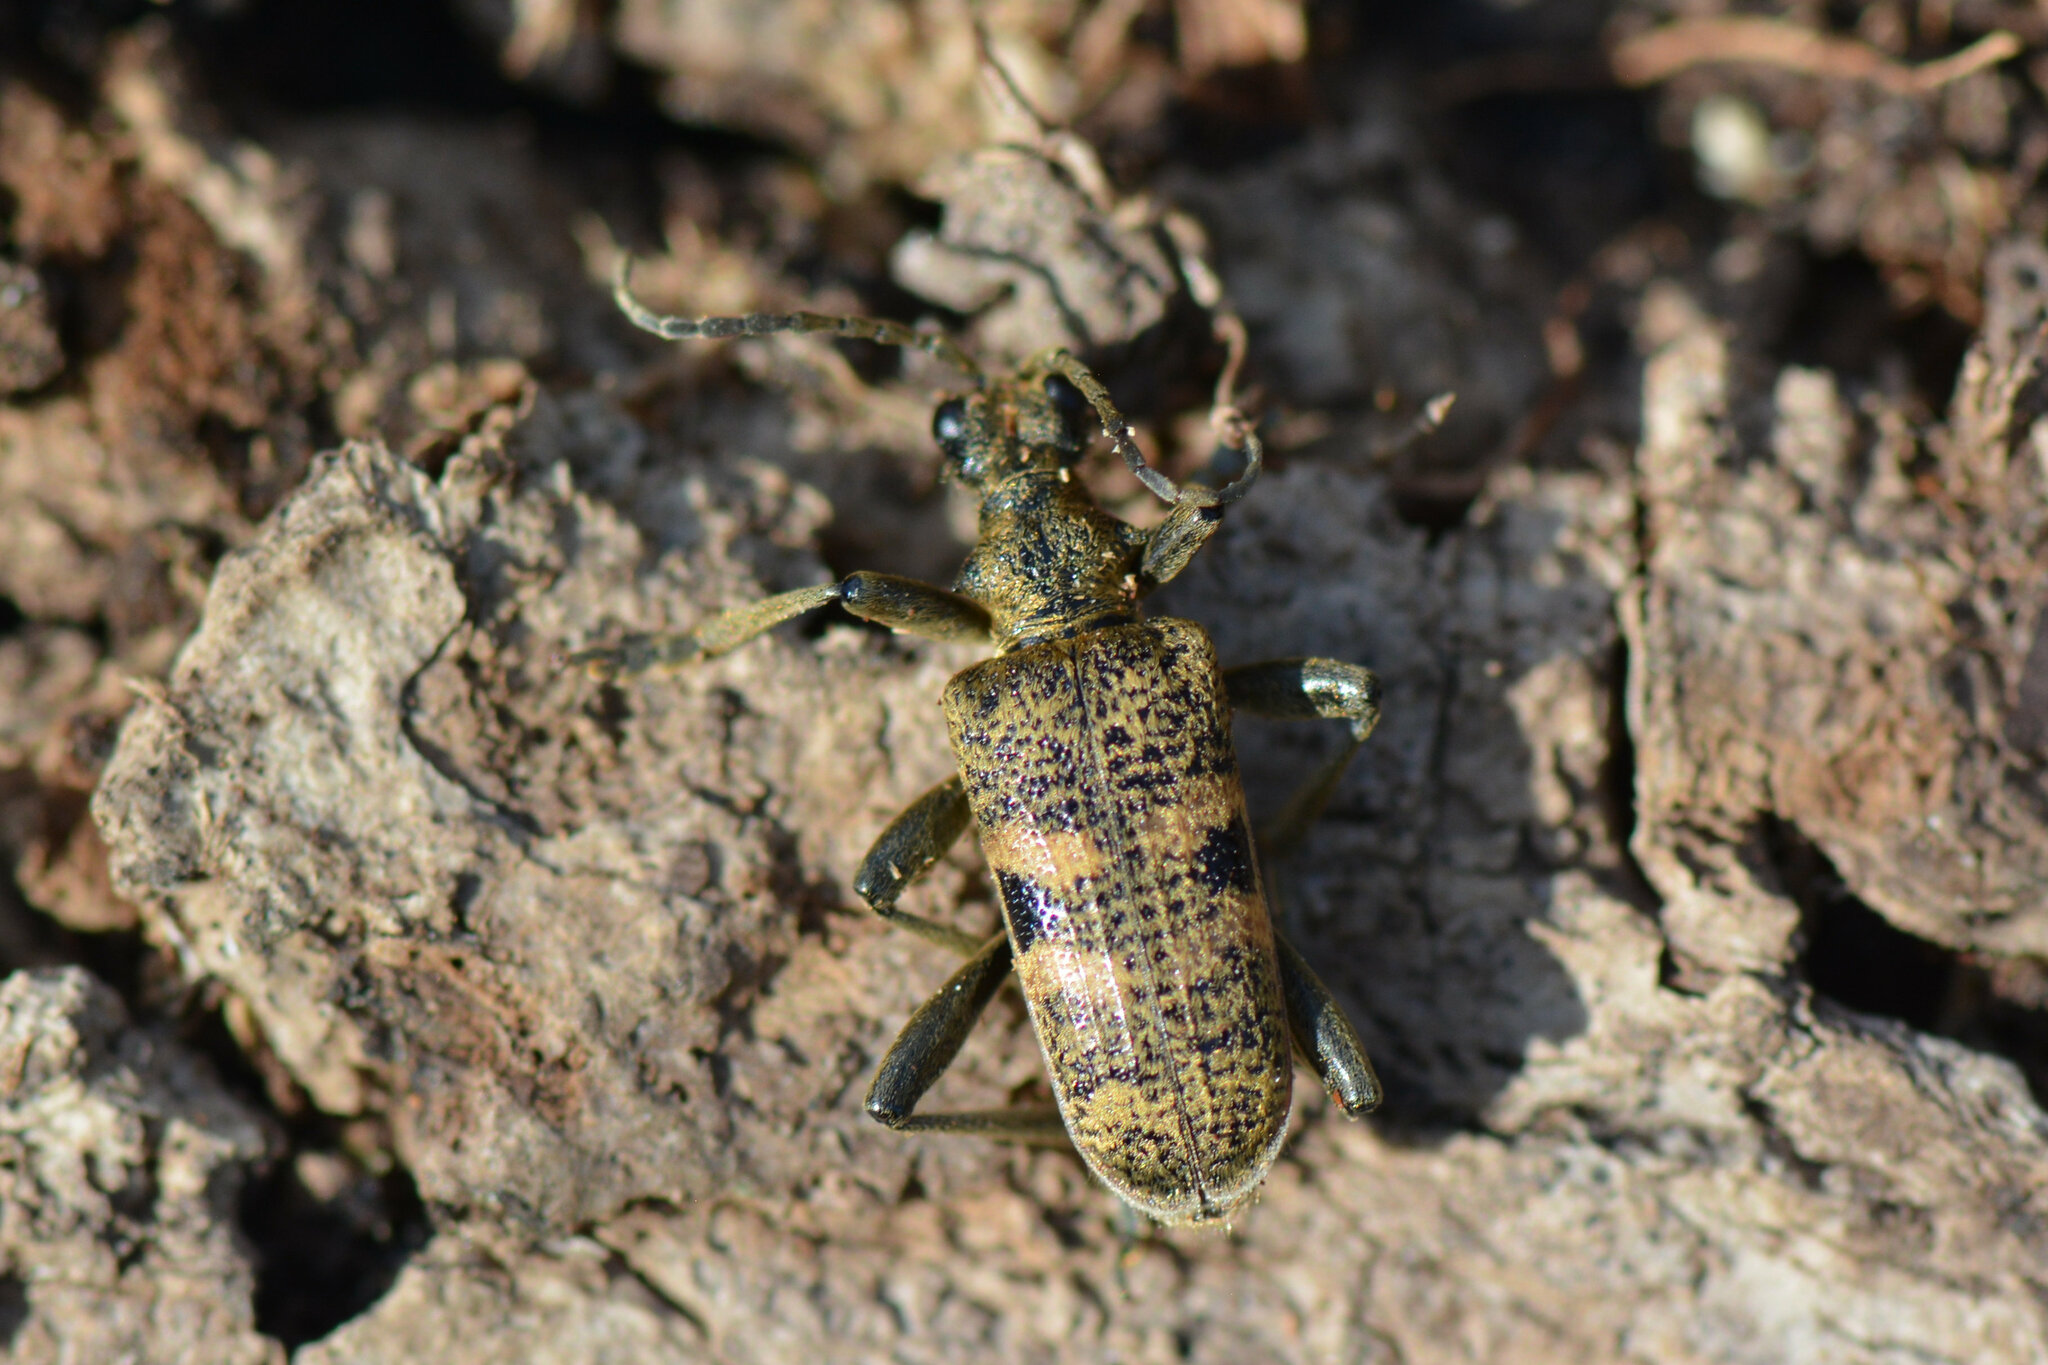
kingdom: Animalia
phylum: Arthropoda
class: Insecta
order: Coleoptera
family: Cerambycidae
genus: Rhagium
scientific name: Rhagium mordax
